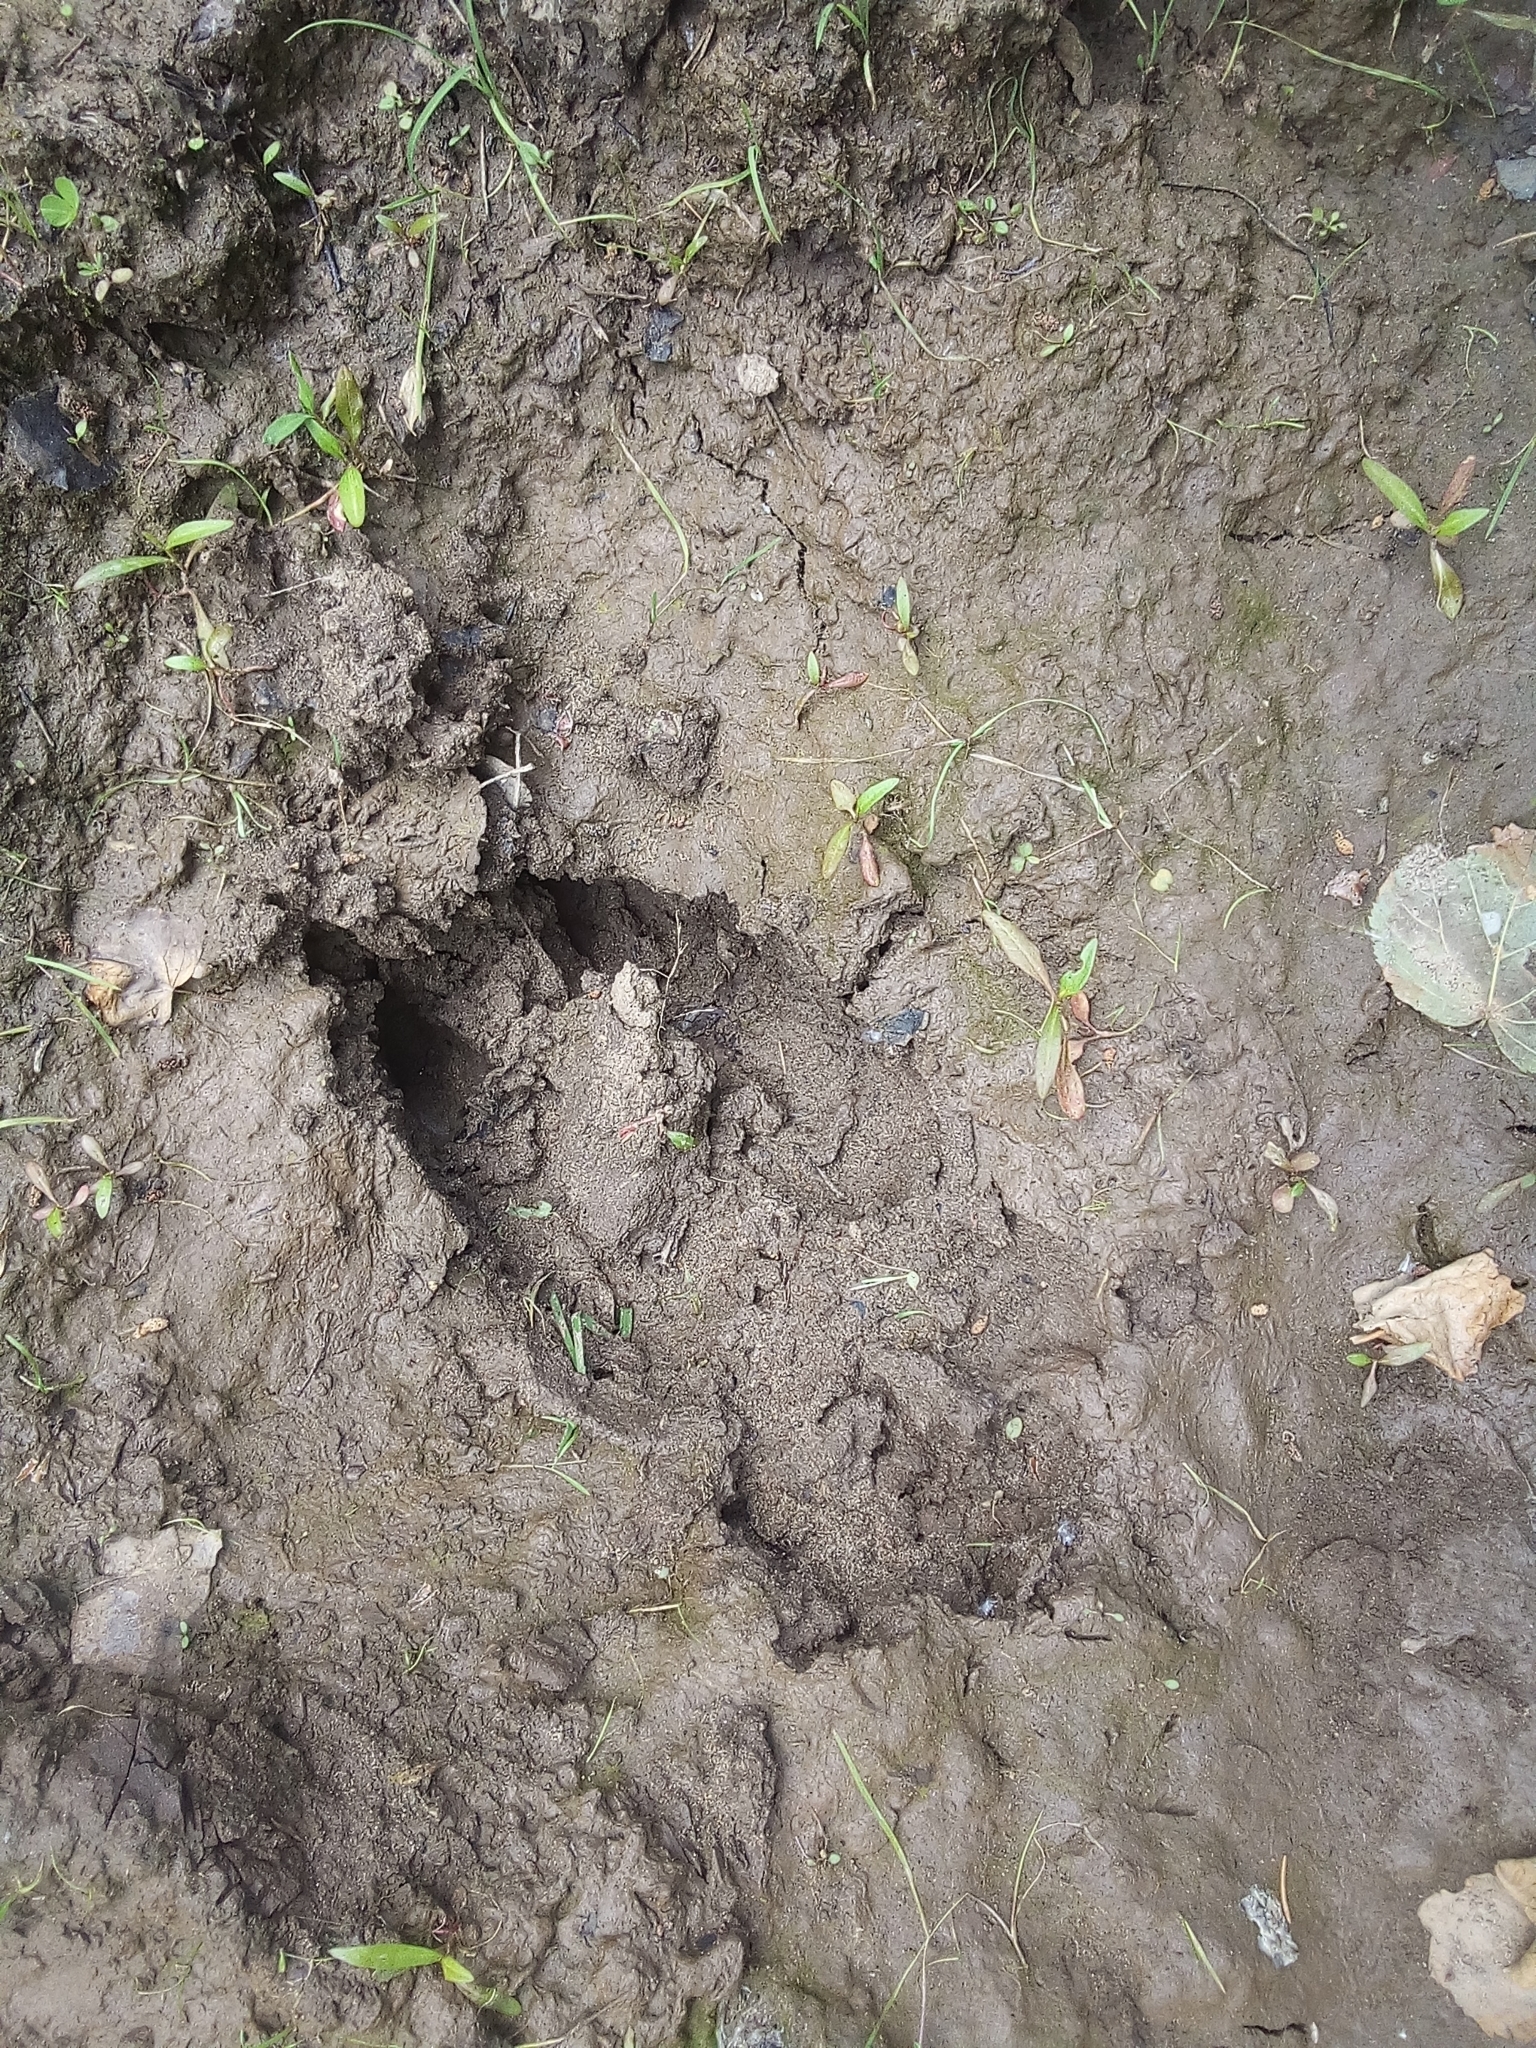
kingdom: Animalia
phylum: Chordata
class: Mammalia
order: Artiodactyla
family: Cervidae
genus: Alces
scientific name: Alces alces
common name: Moose
